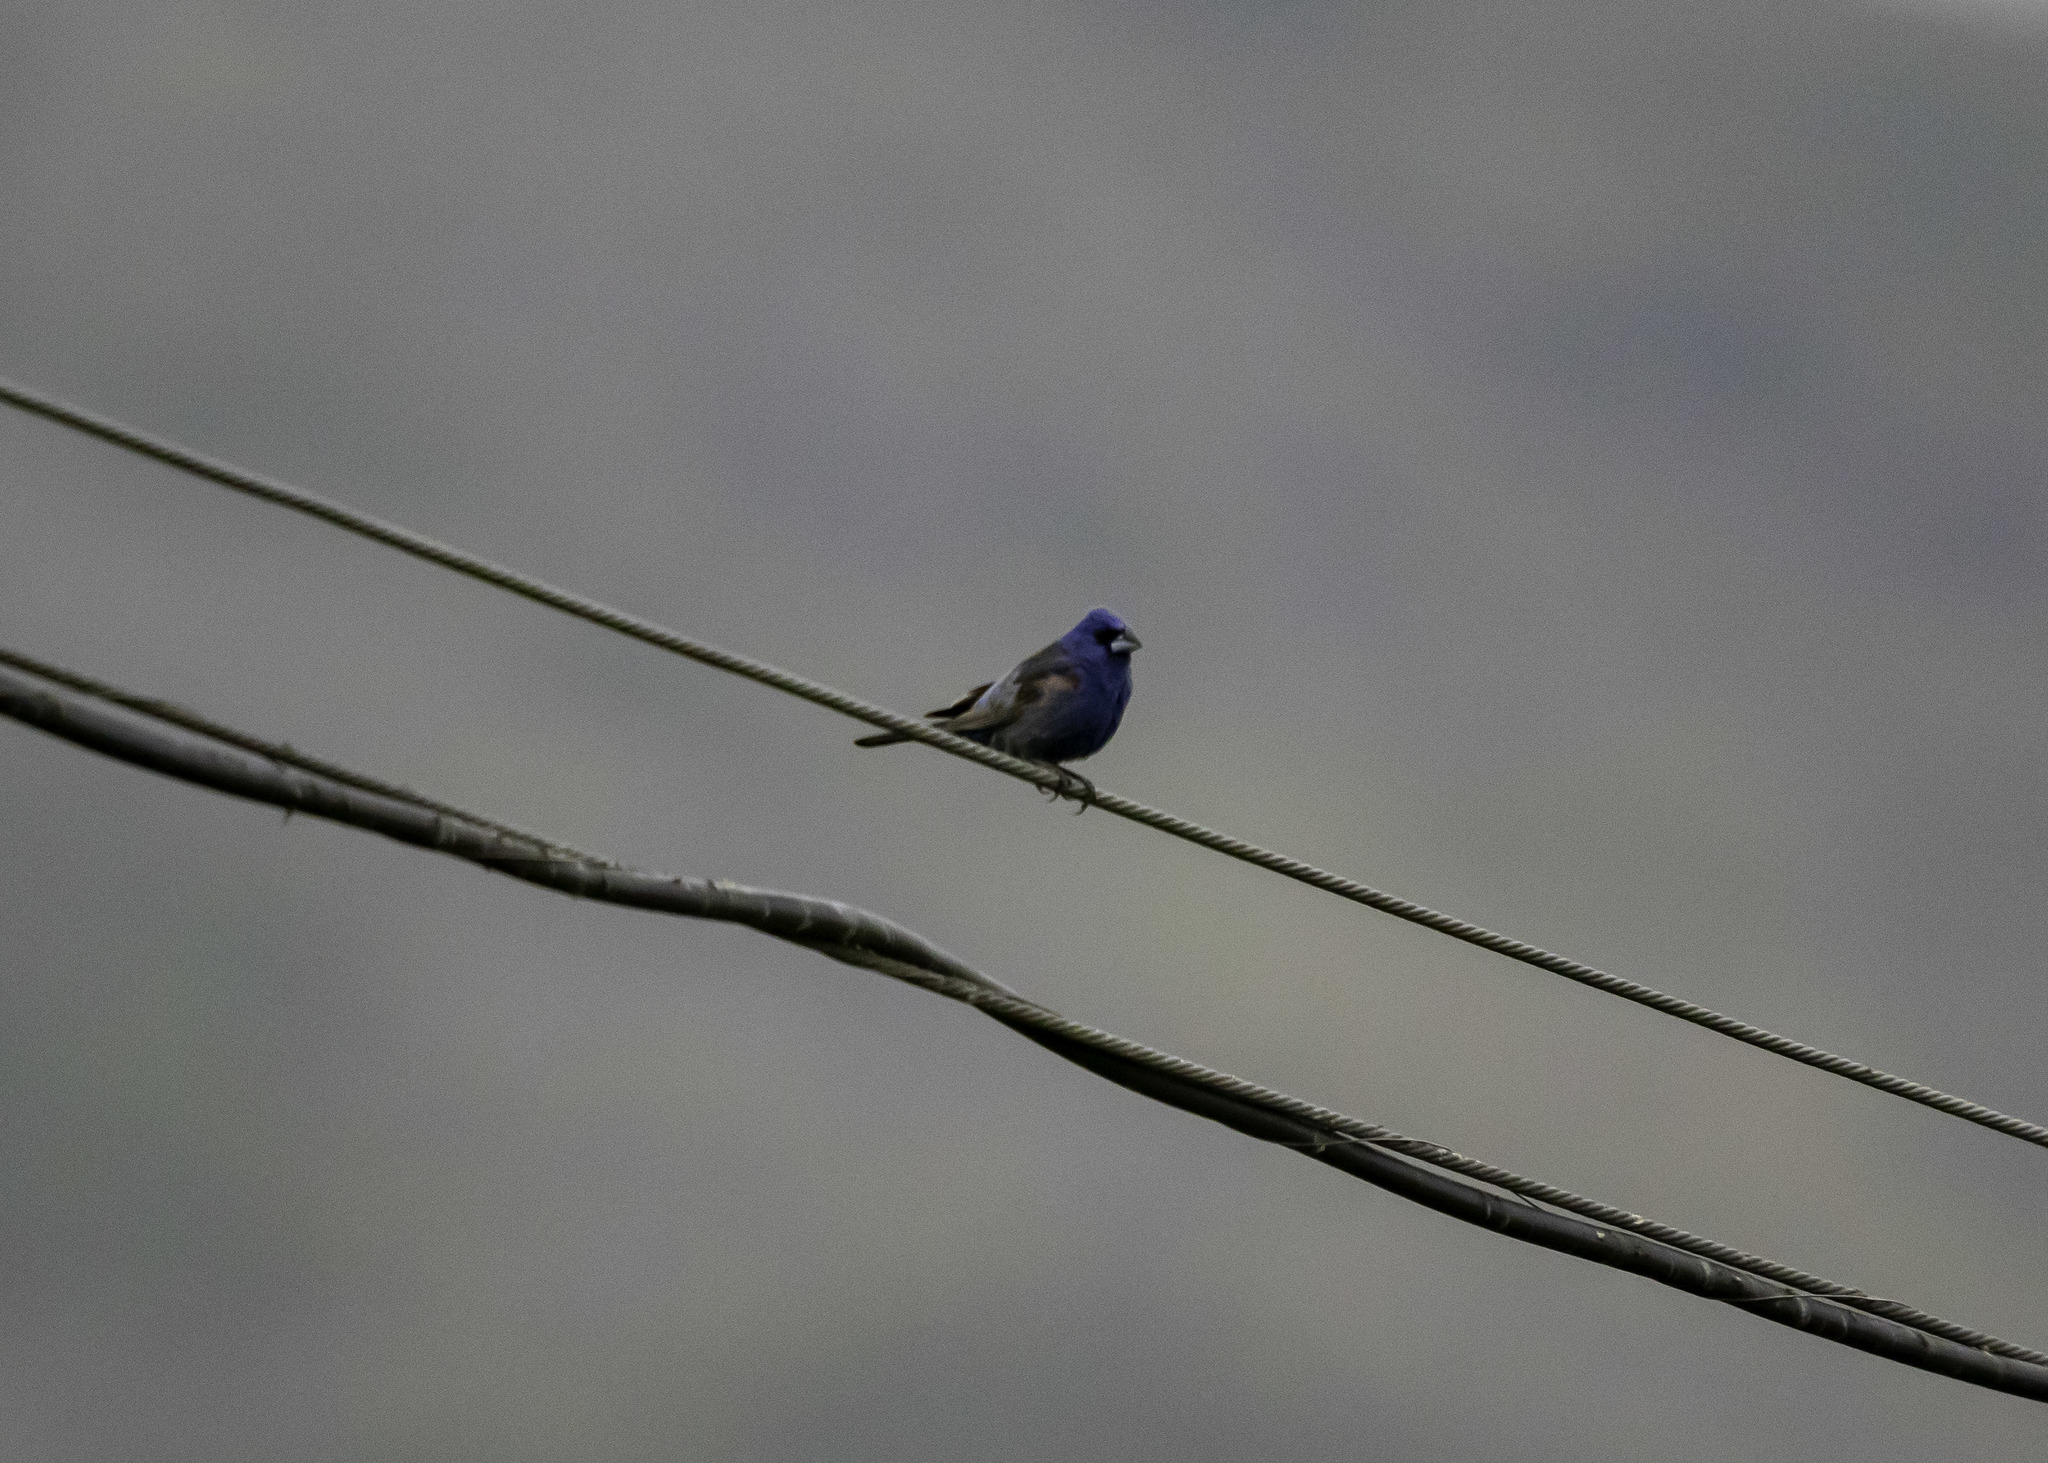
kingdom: Animalia
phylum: Chordata
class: Aves
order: Passeriformes
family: Cardinalidae
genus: Passerina
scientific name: Passerina caerulea
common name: Blue grosbeak
